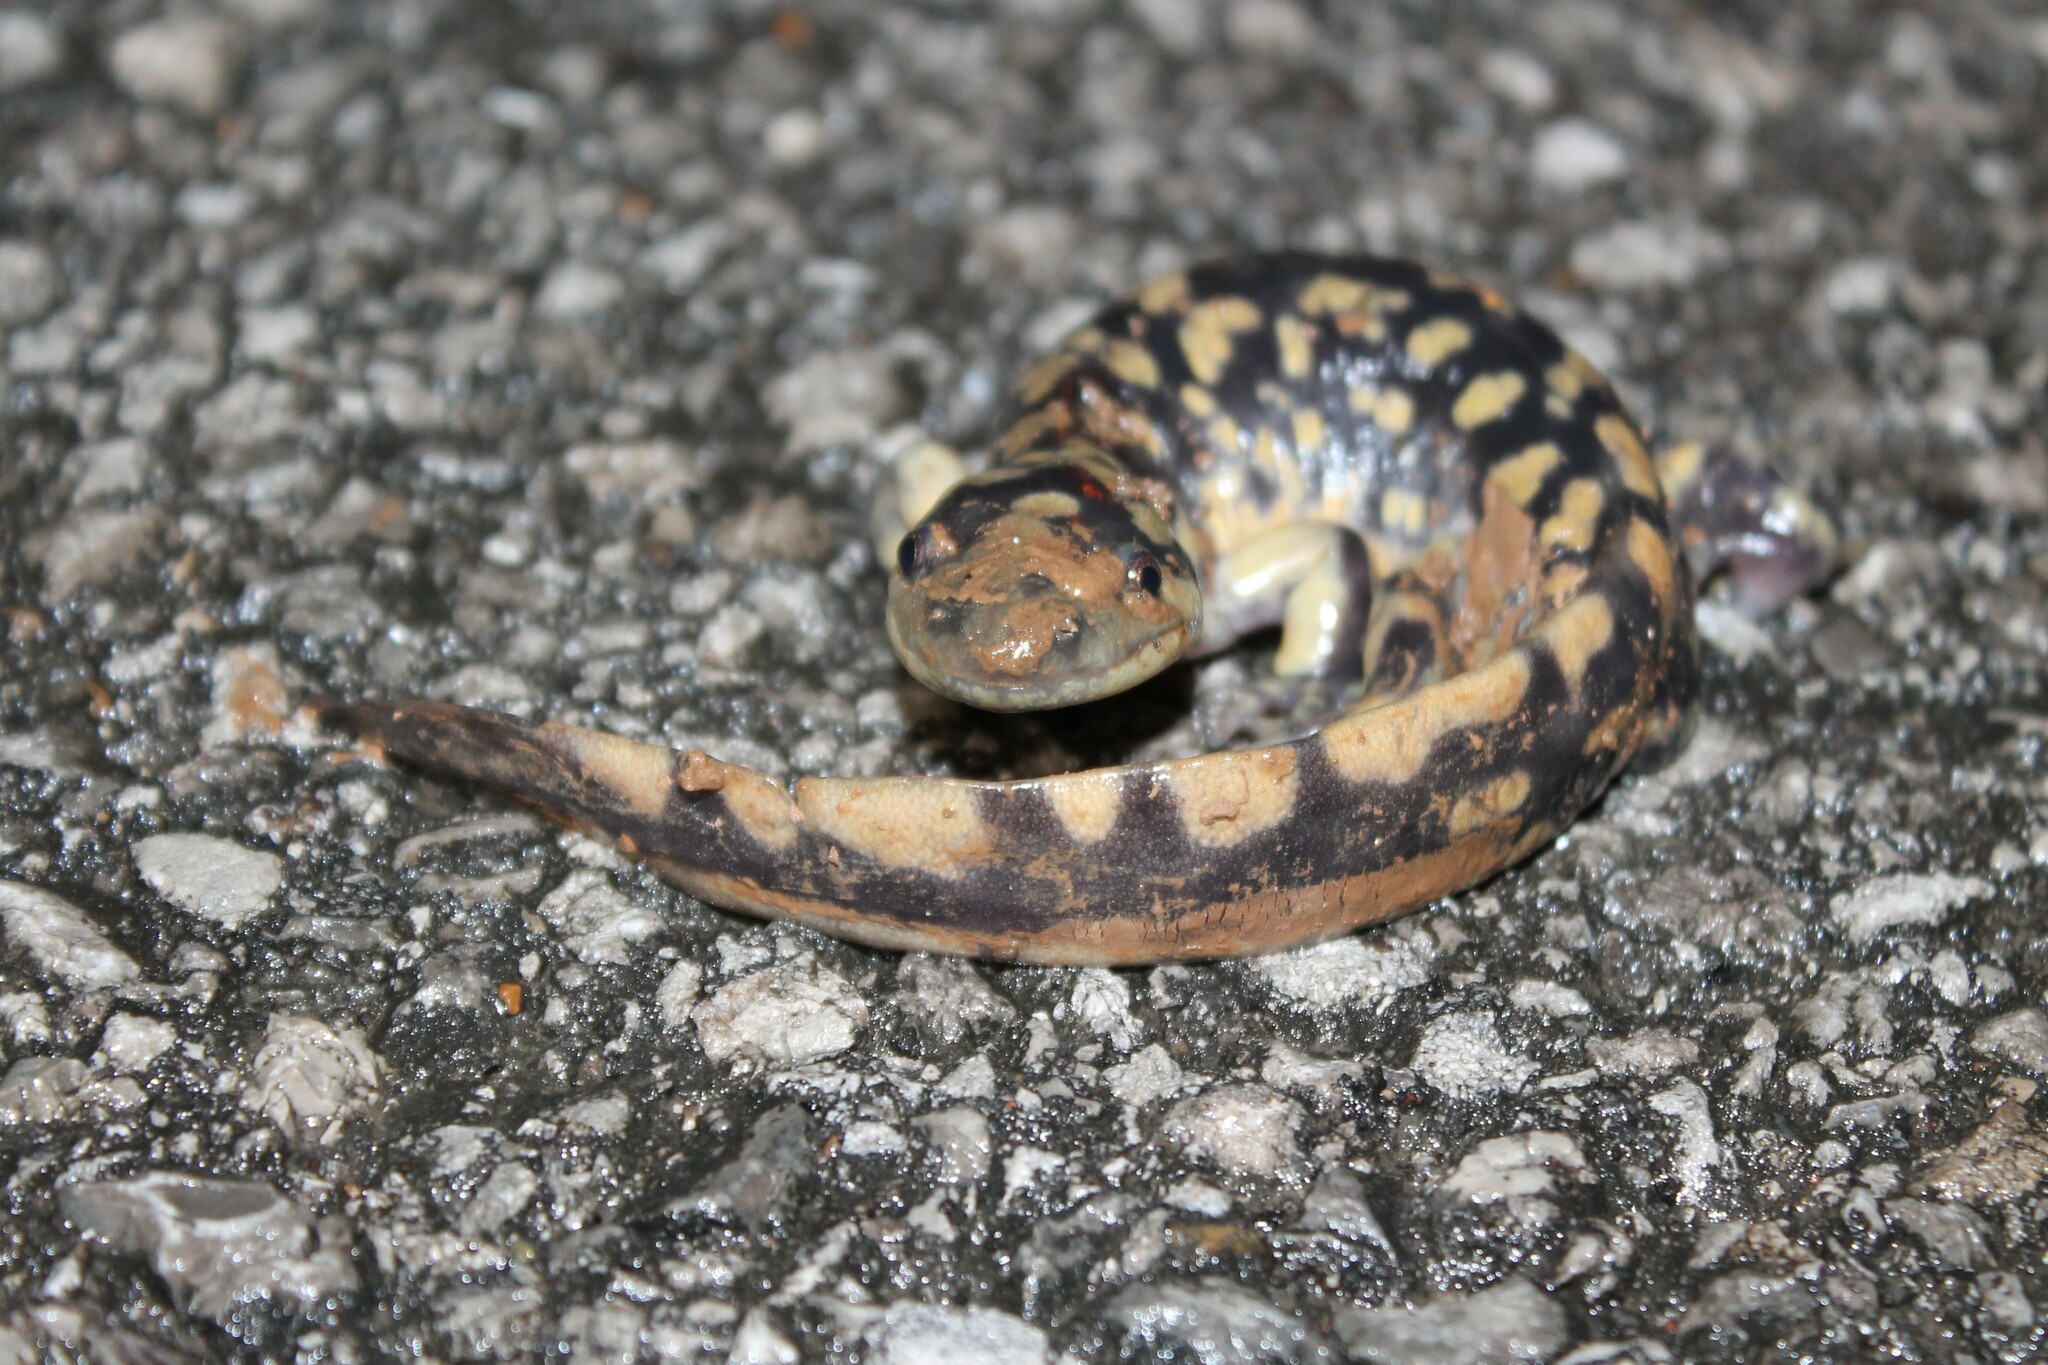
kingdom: Animalia
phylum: Chordata
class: Amphibia
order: Caudata
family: Ambystomatidae
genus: Ambystoma
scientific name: Ambystoma tigrinum
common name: Tiger salamander
